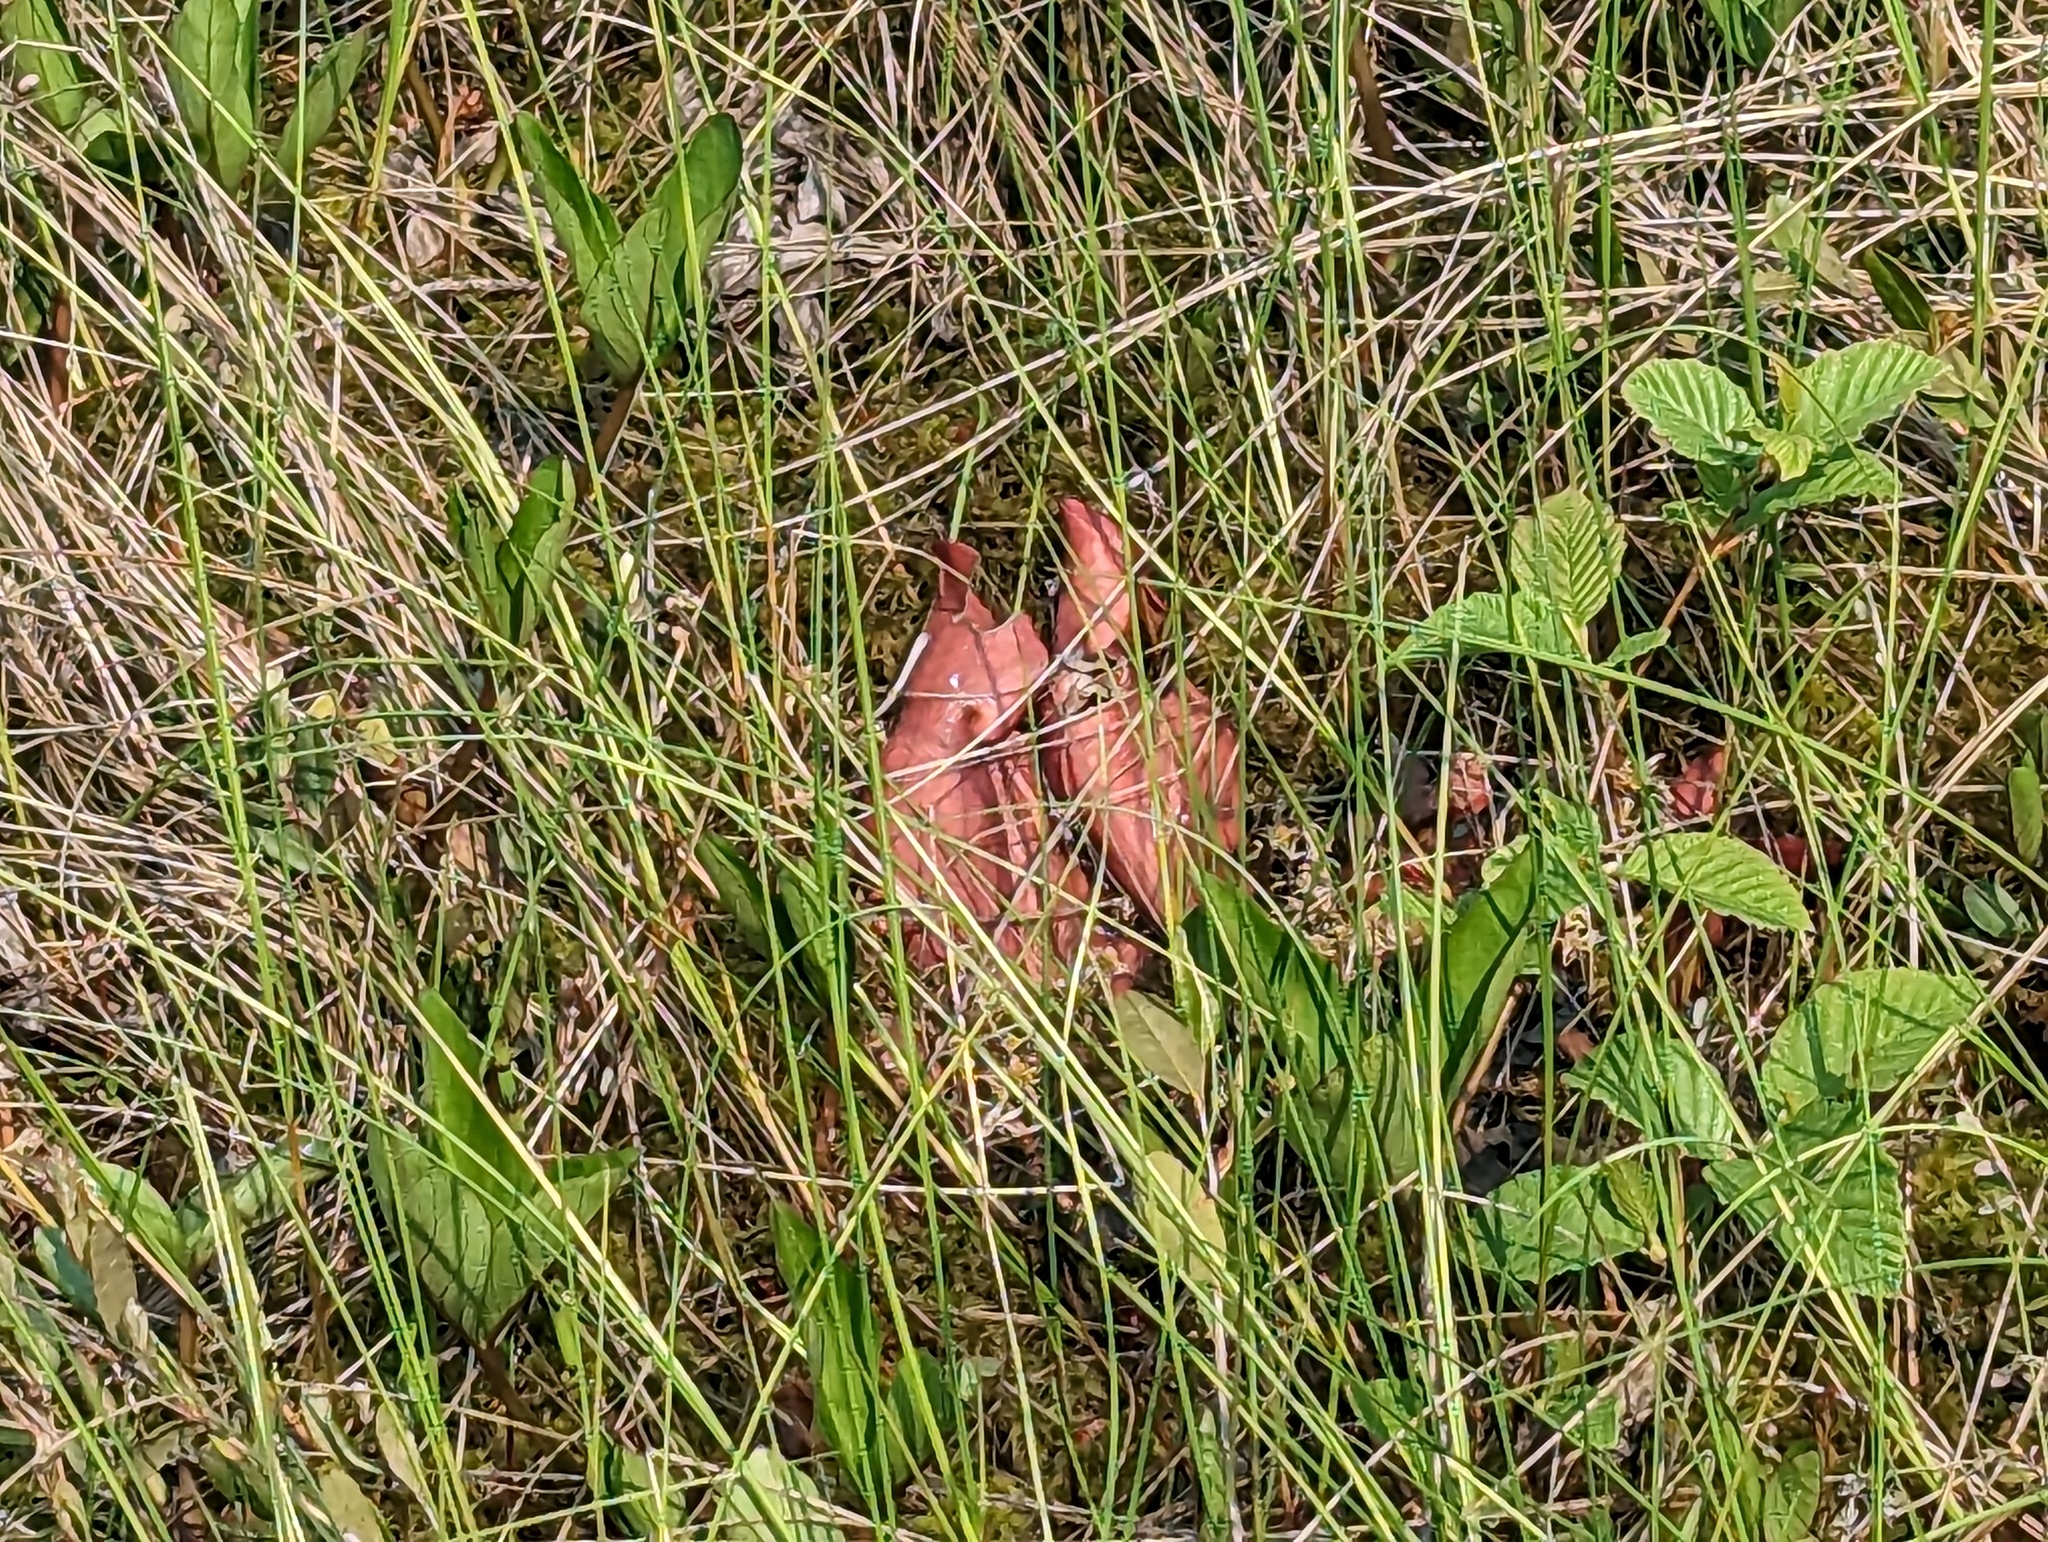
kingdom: Plantae
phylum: Tracheophyta
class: Magnoliopsida
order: Ericales
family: Sarraceniaceae
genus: Sarracenia
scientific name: Sarracenia purpurea
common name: Pitcherplant
